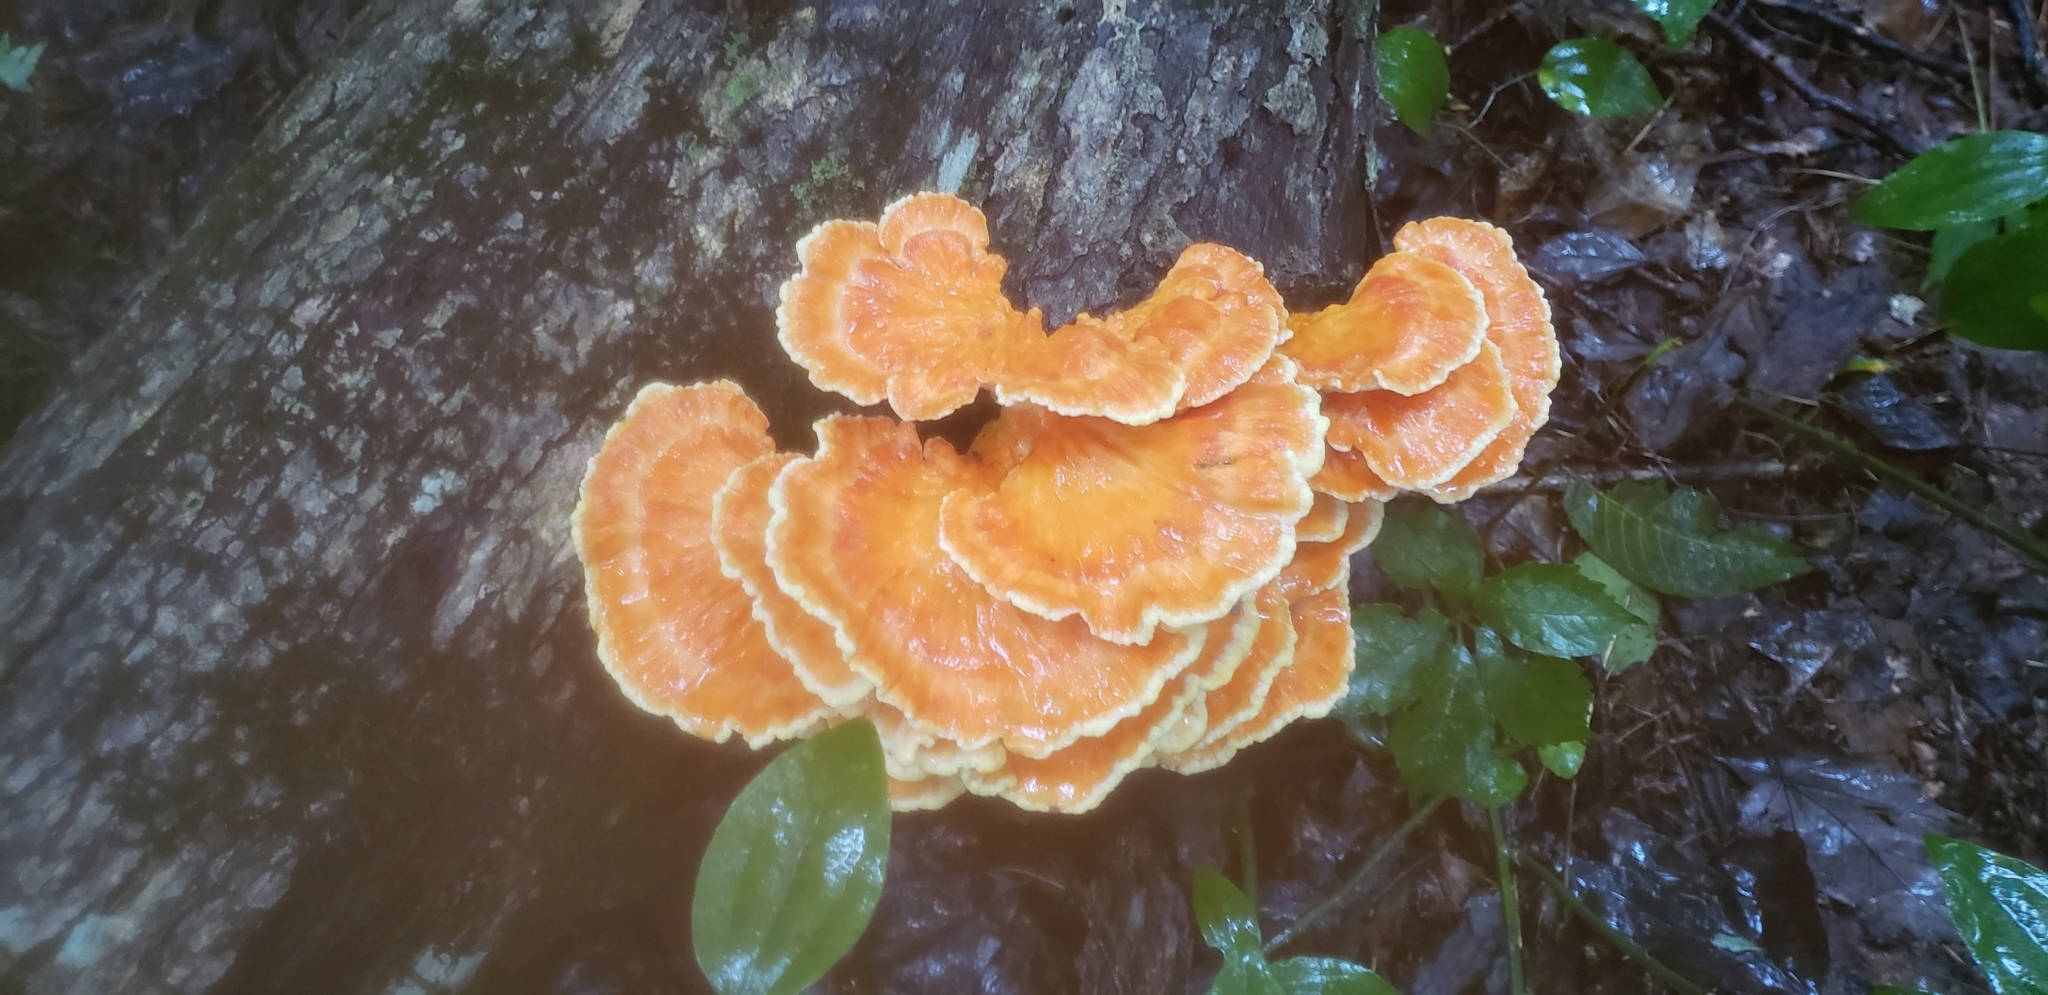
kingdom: Fungi
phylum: Basidiomycota
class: Agaricomycetes
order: Polyporales
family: Laetiporaceae
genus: Laetiporus
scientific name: Laetiporus sulphureus
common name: Chicken of the woods
